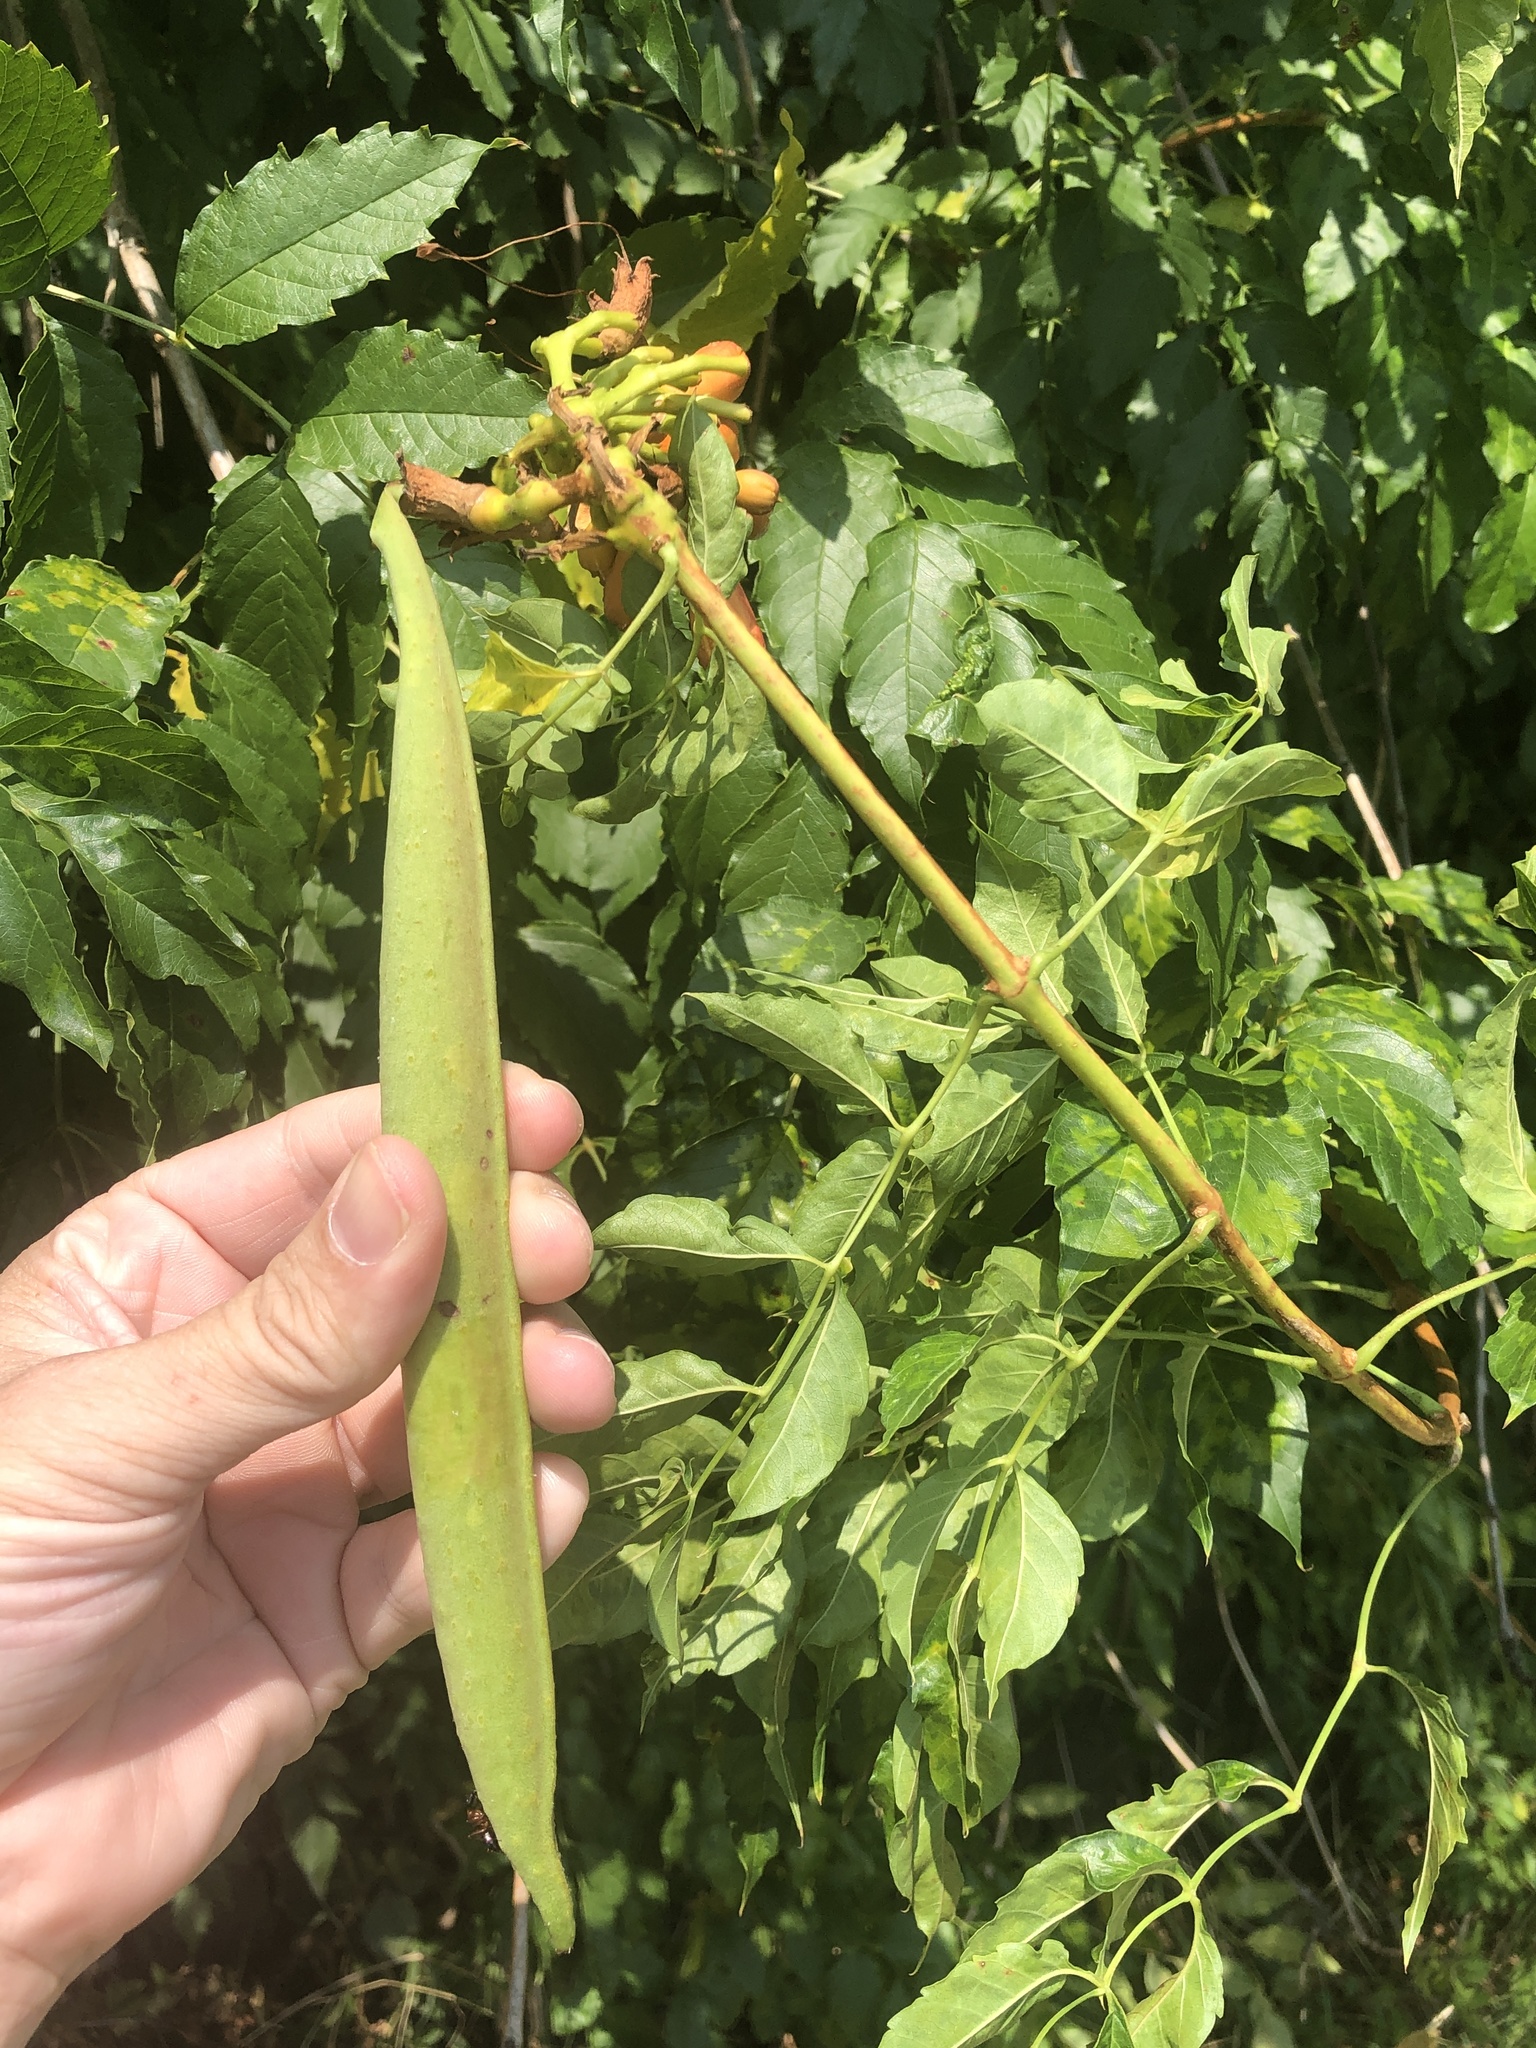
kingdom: Plantae
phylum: Tracheophyta
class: Magnoliopsida
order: Lamiales
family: Bignoniaceae
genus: Campsis
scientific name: Campsis radicans
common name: Trumpet-creeper
